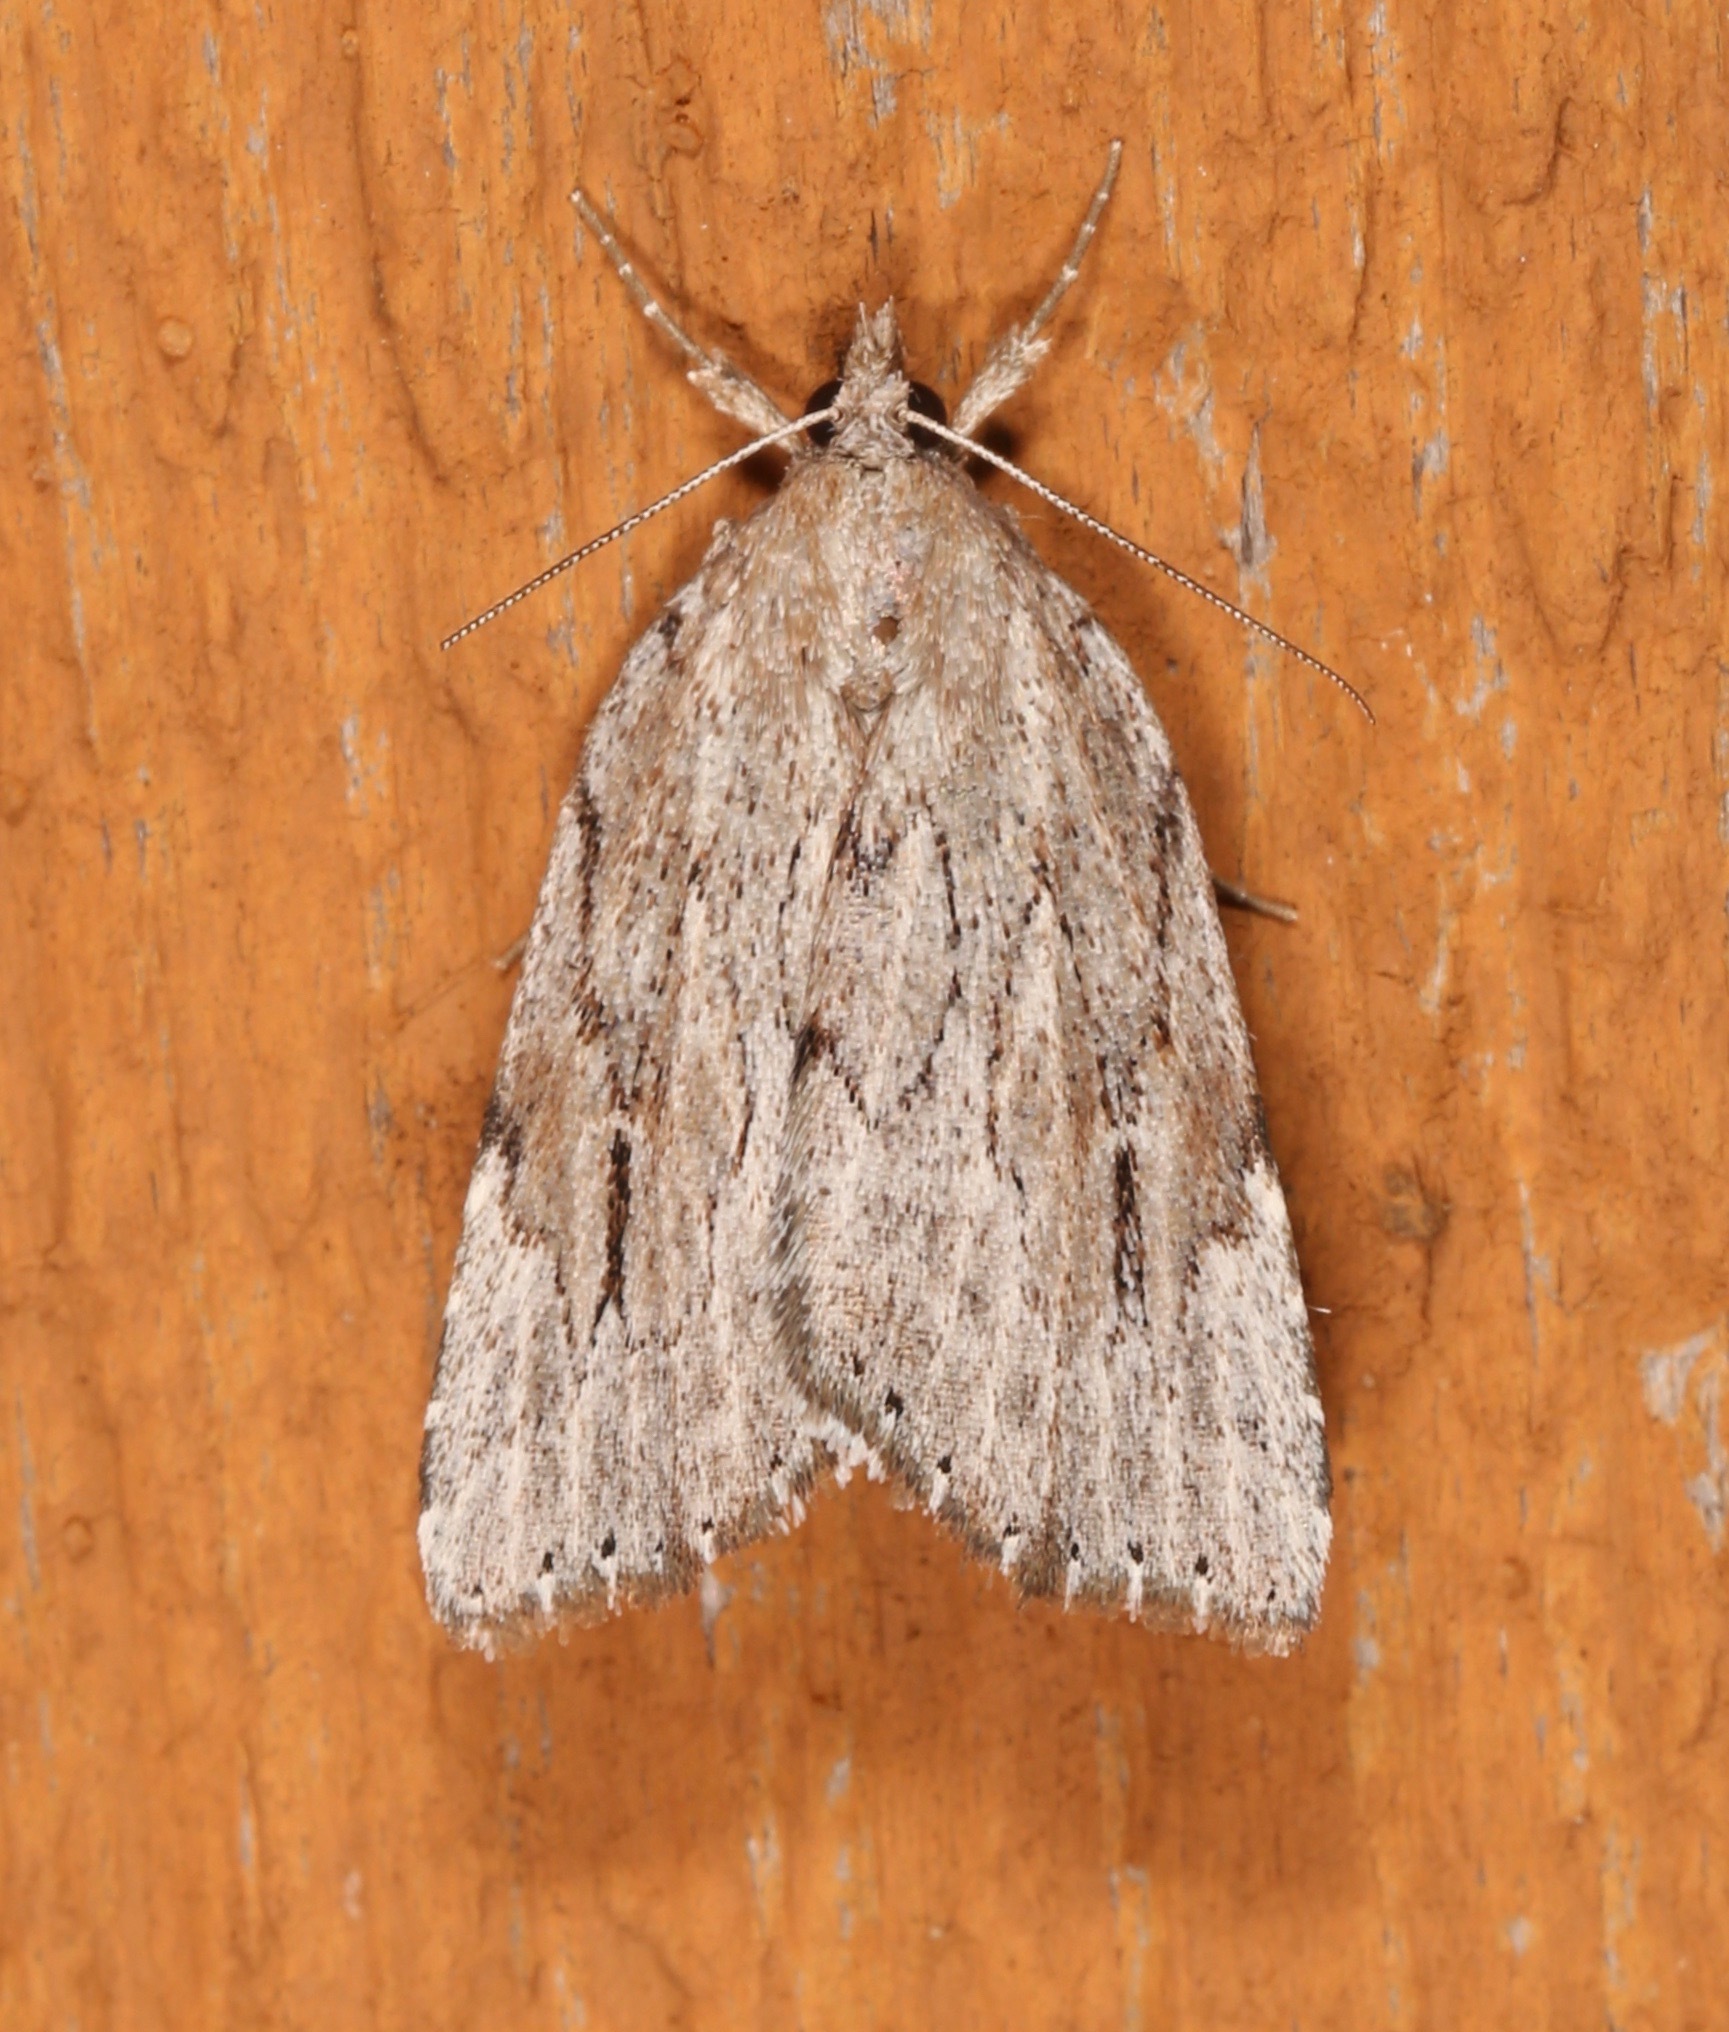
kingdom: Animalia
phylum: Arthropoda
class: Insecta
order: Lepidoptera
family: Erebidae
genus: Cutina
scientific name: Cutina albopunctella
